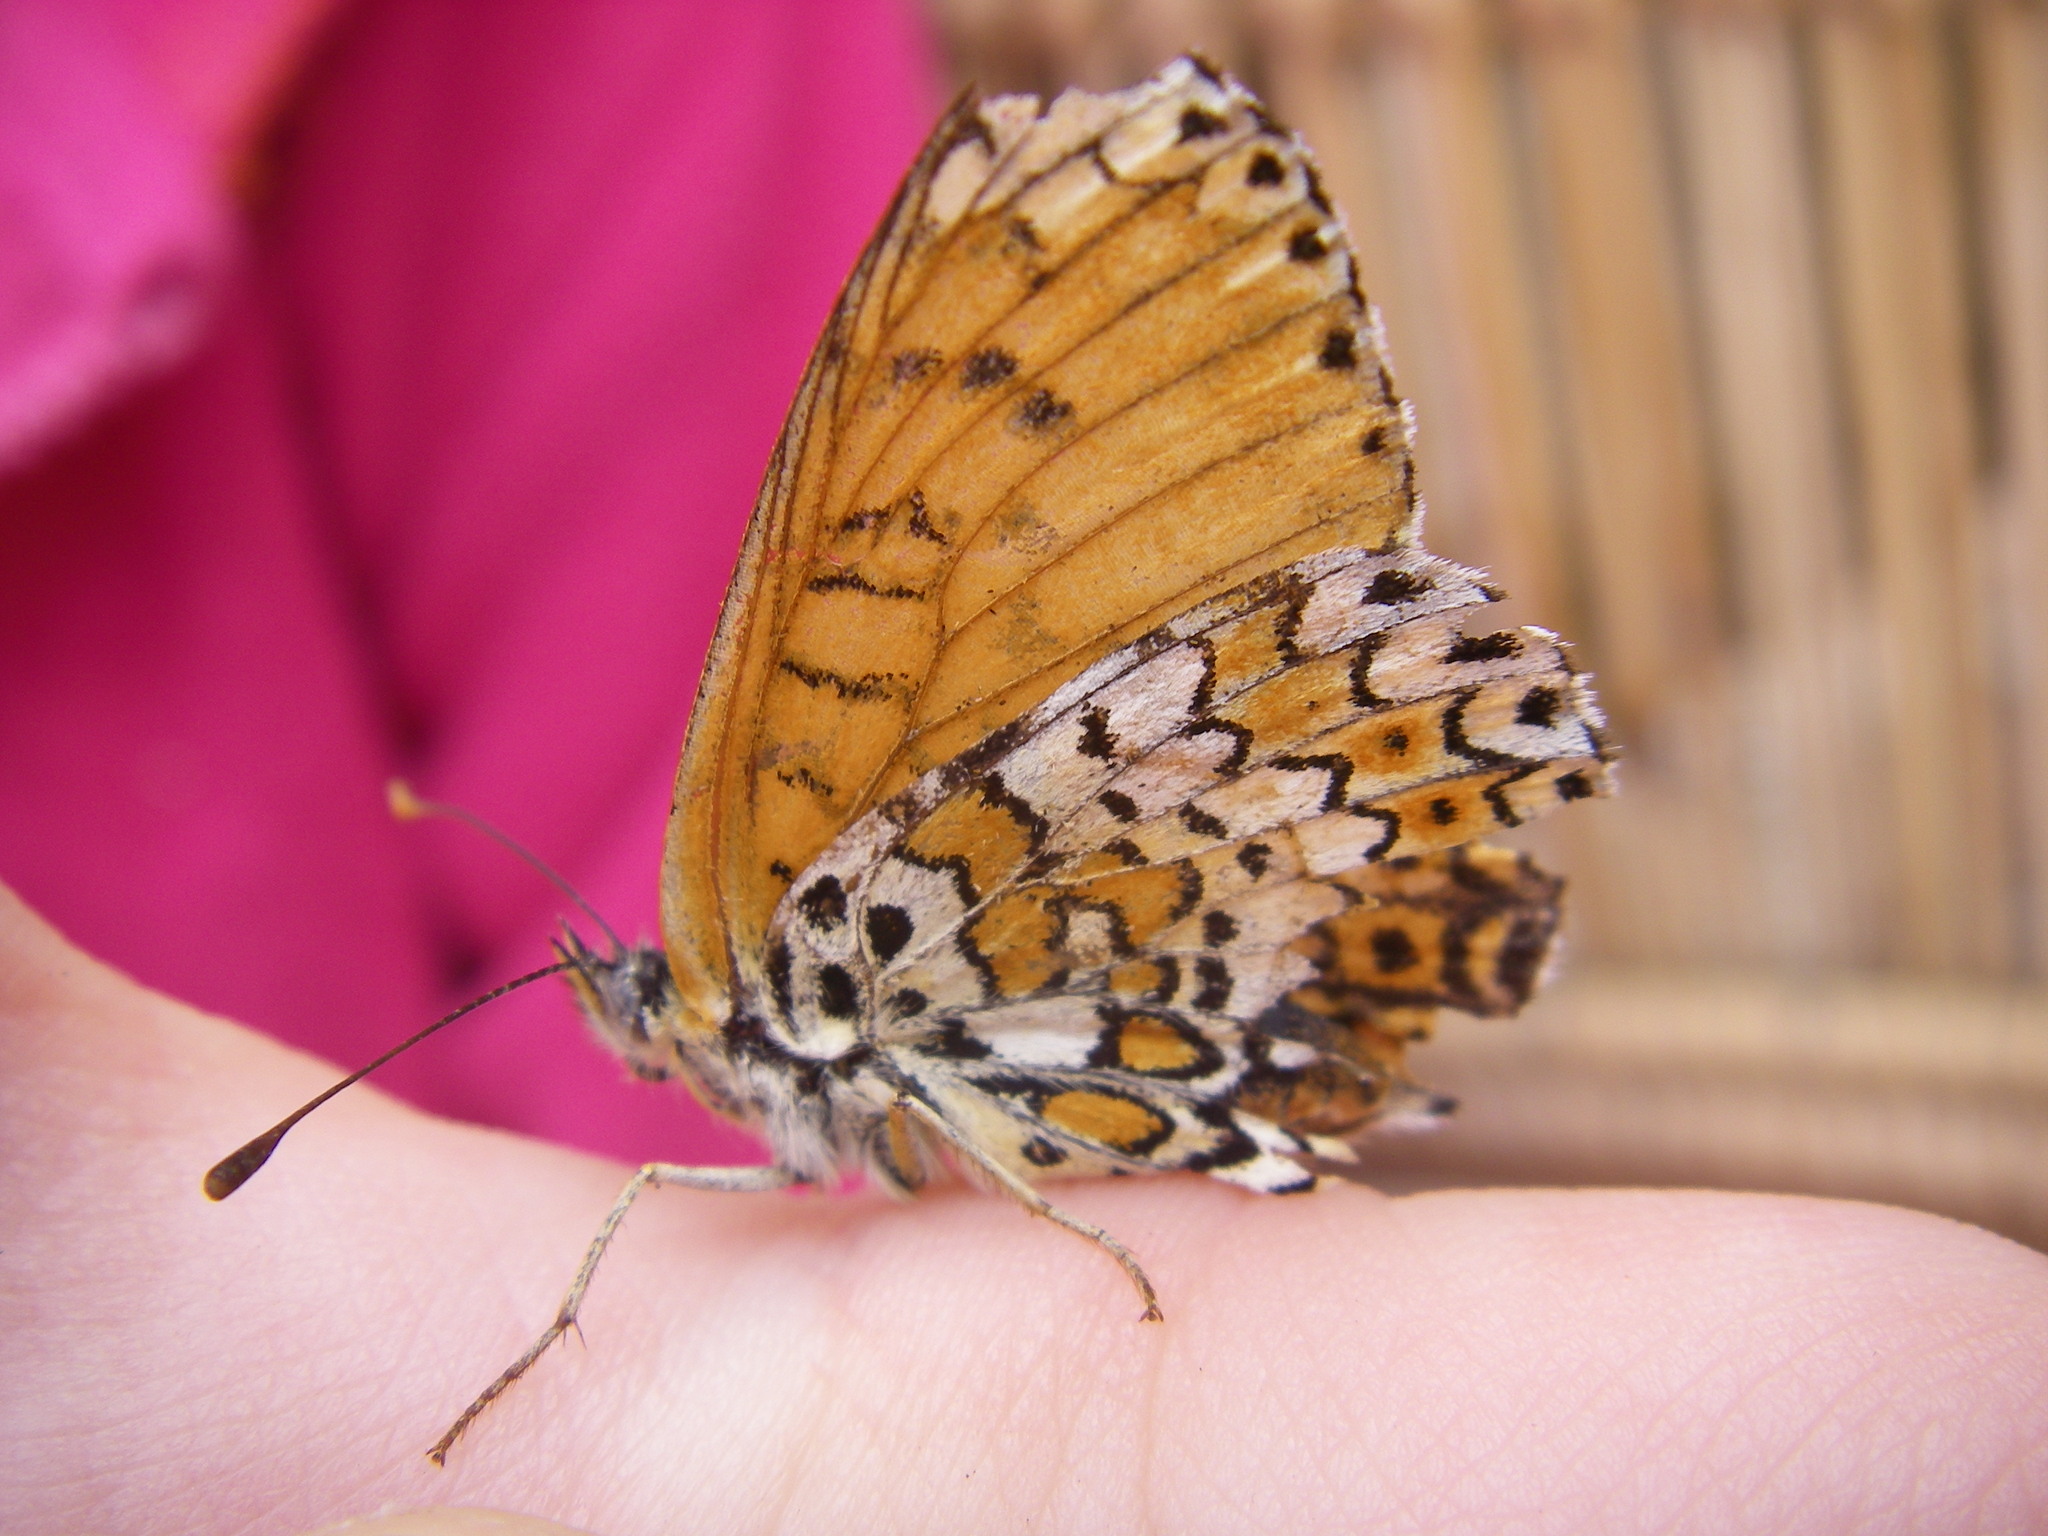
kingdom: Animalia
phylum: Arthropoda
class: Insecta
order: Lepidoptera
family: Nymphalidae
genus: Melitaea
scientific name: Melitaea cinxia
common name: Glanville fritillary
